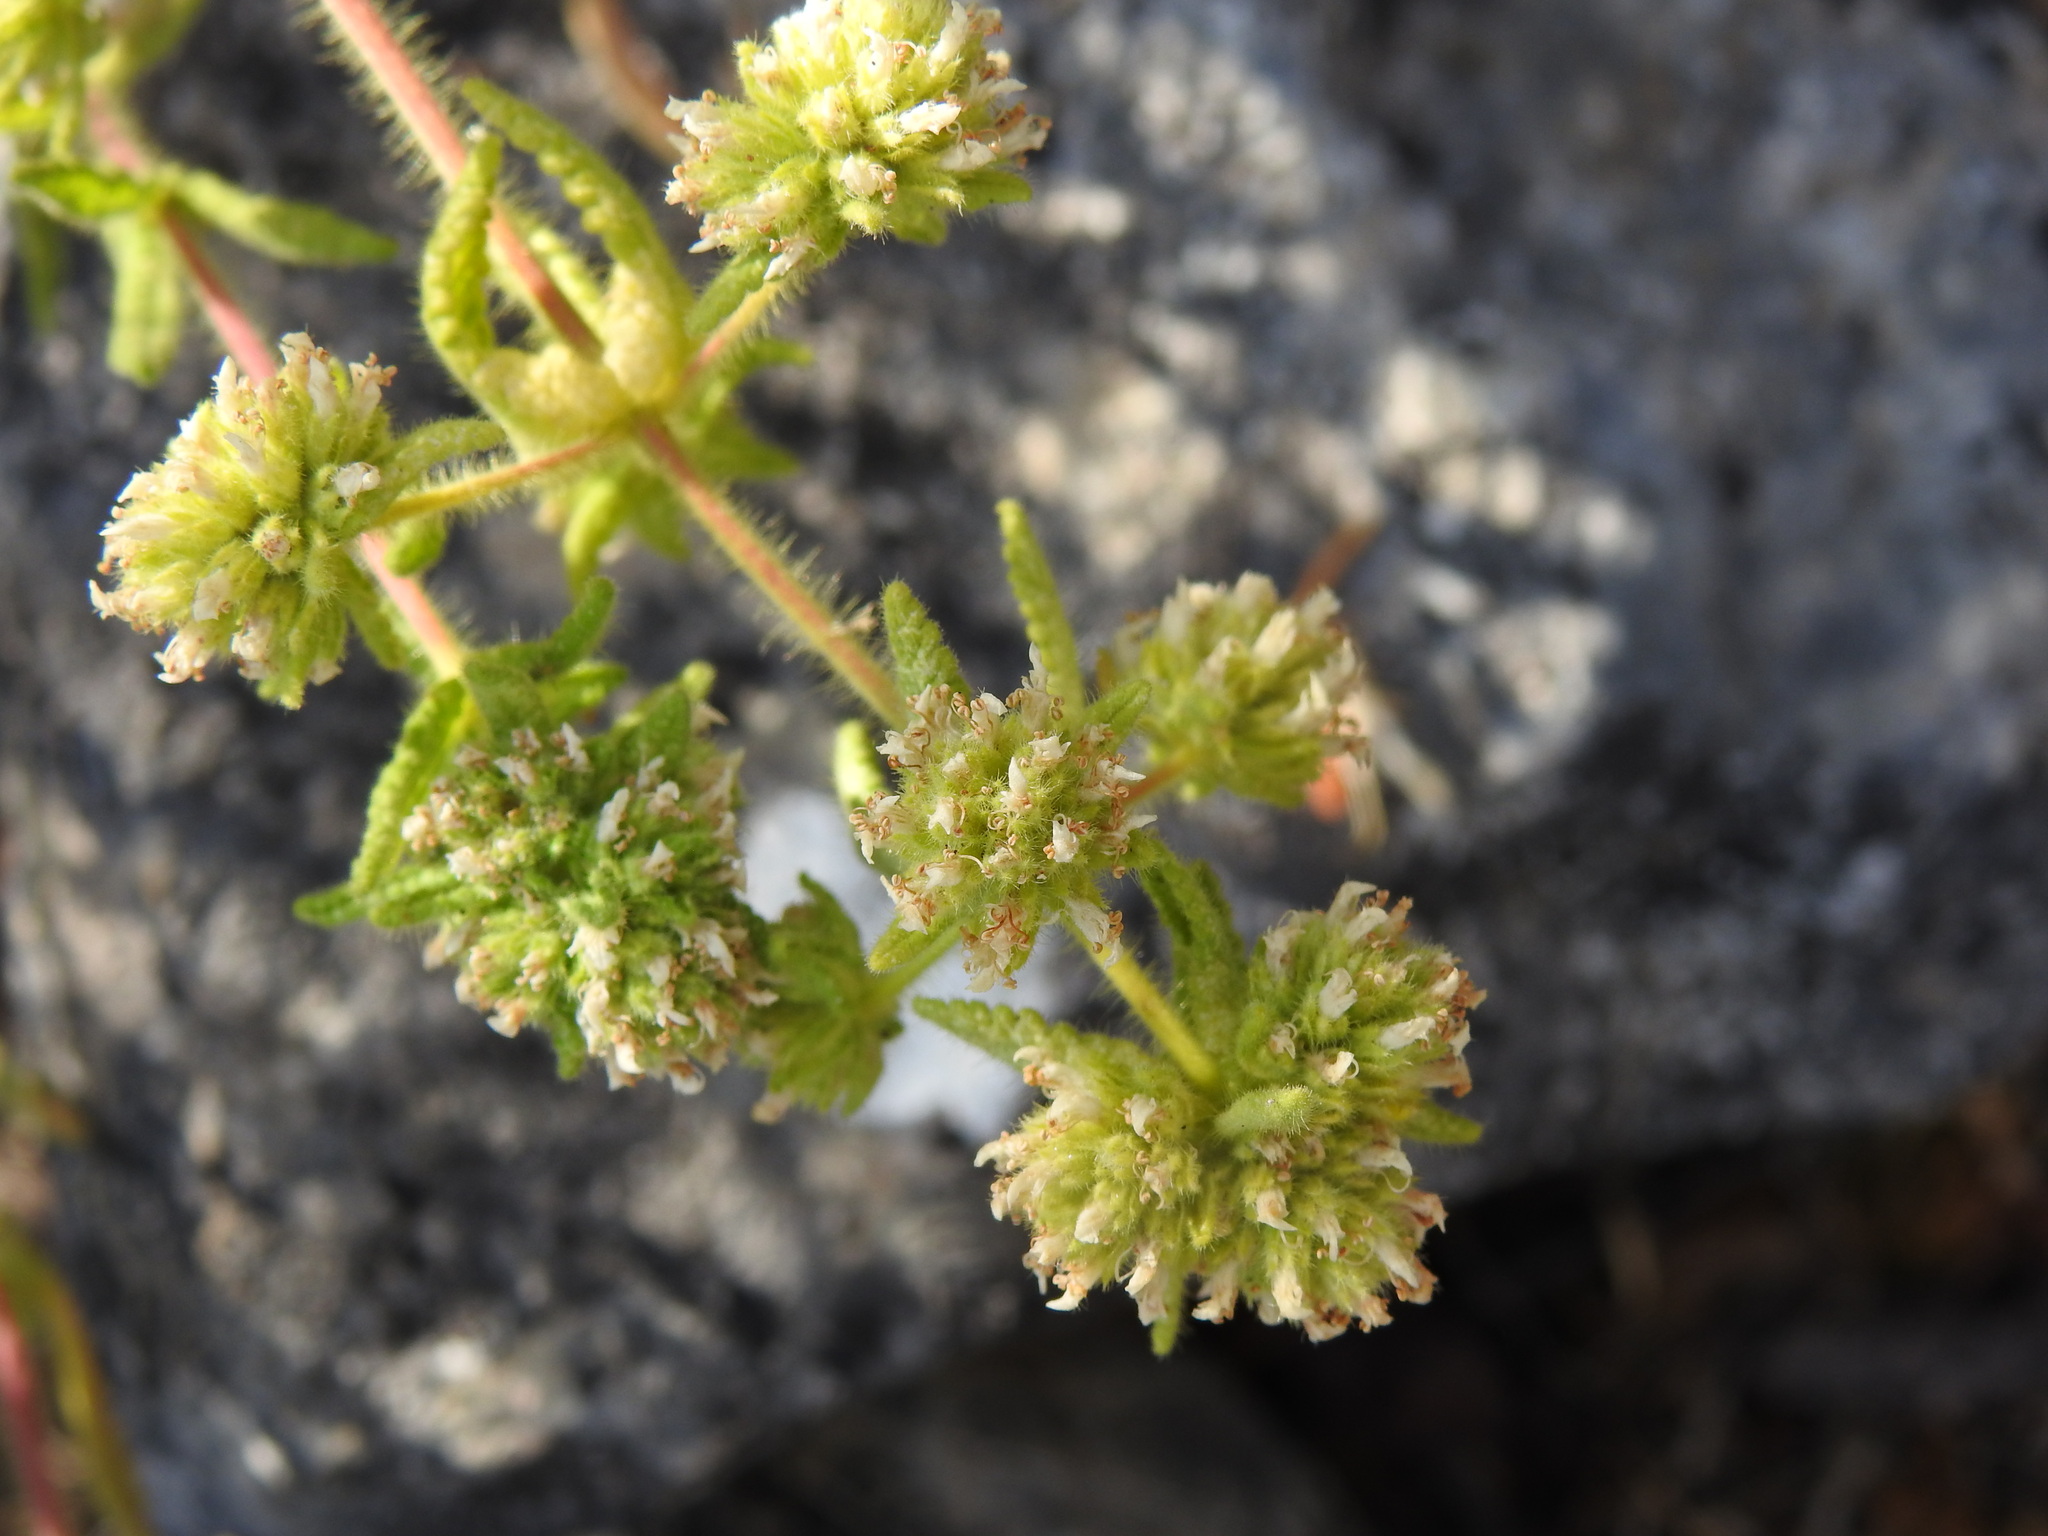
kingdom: Plantae
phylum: Tracheophyta
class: Magnoliopsida
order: Lamiales
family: Lamiaceae
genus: Teucrium
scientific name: Teucrium haenseleri
